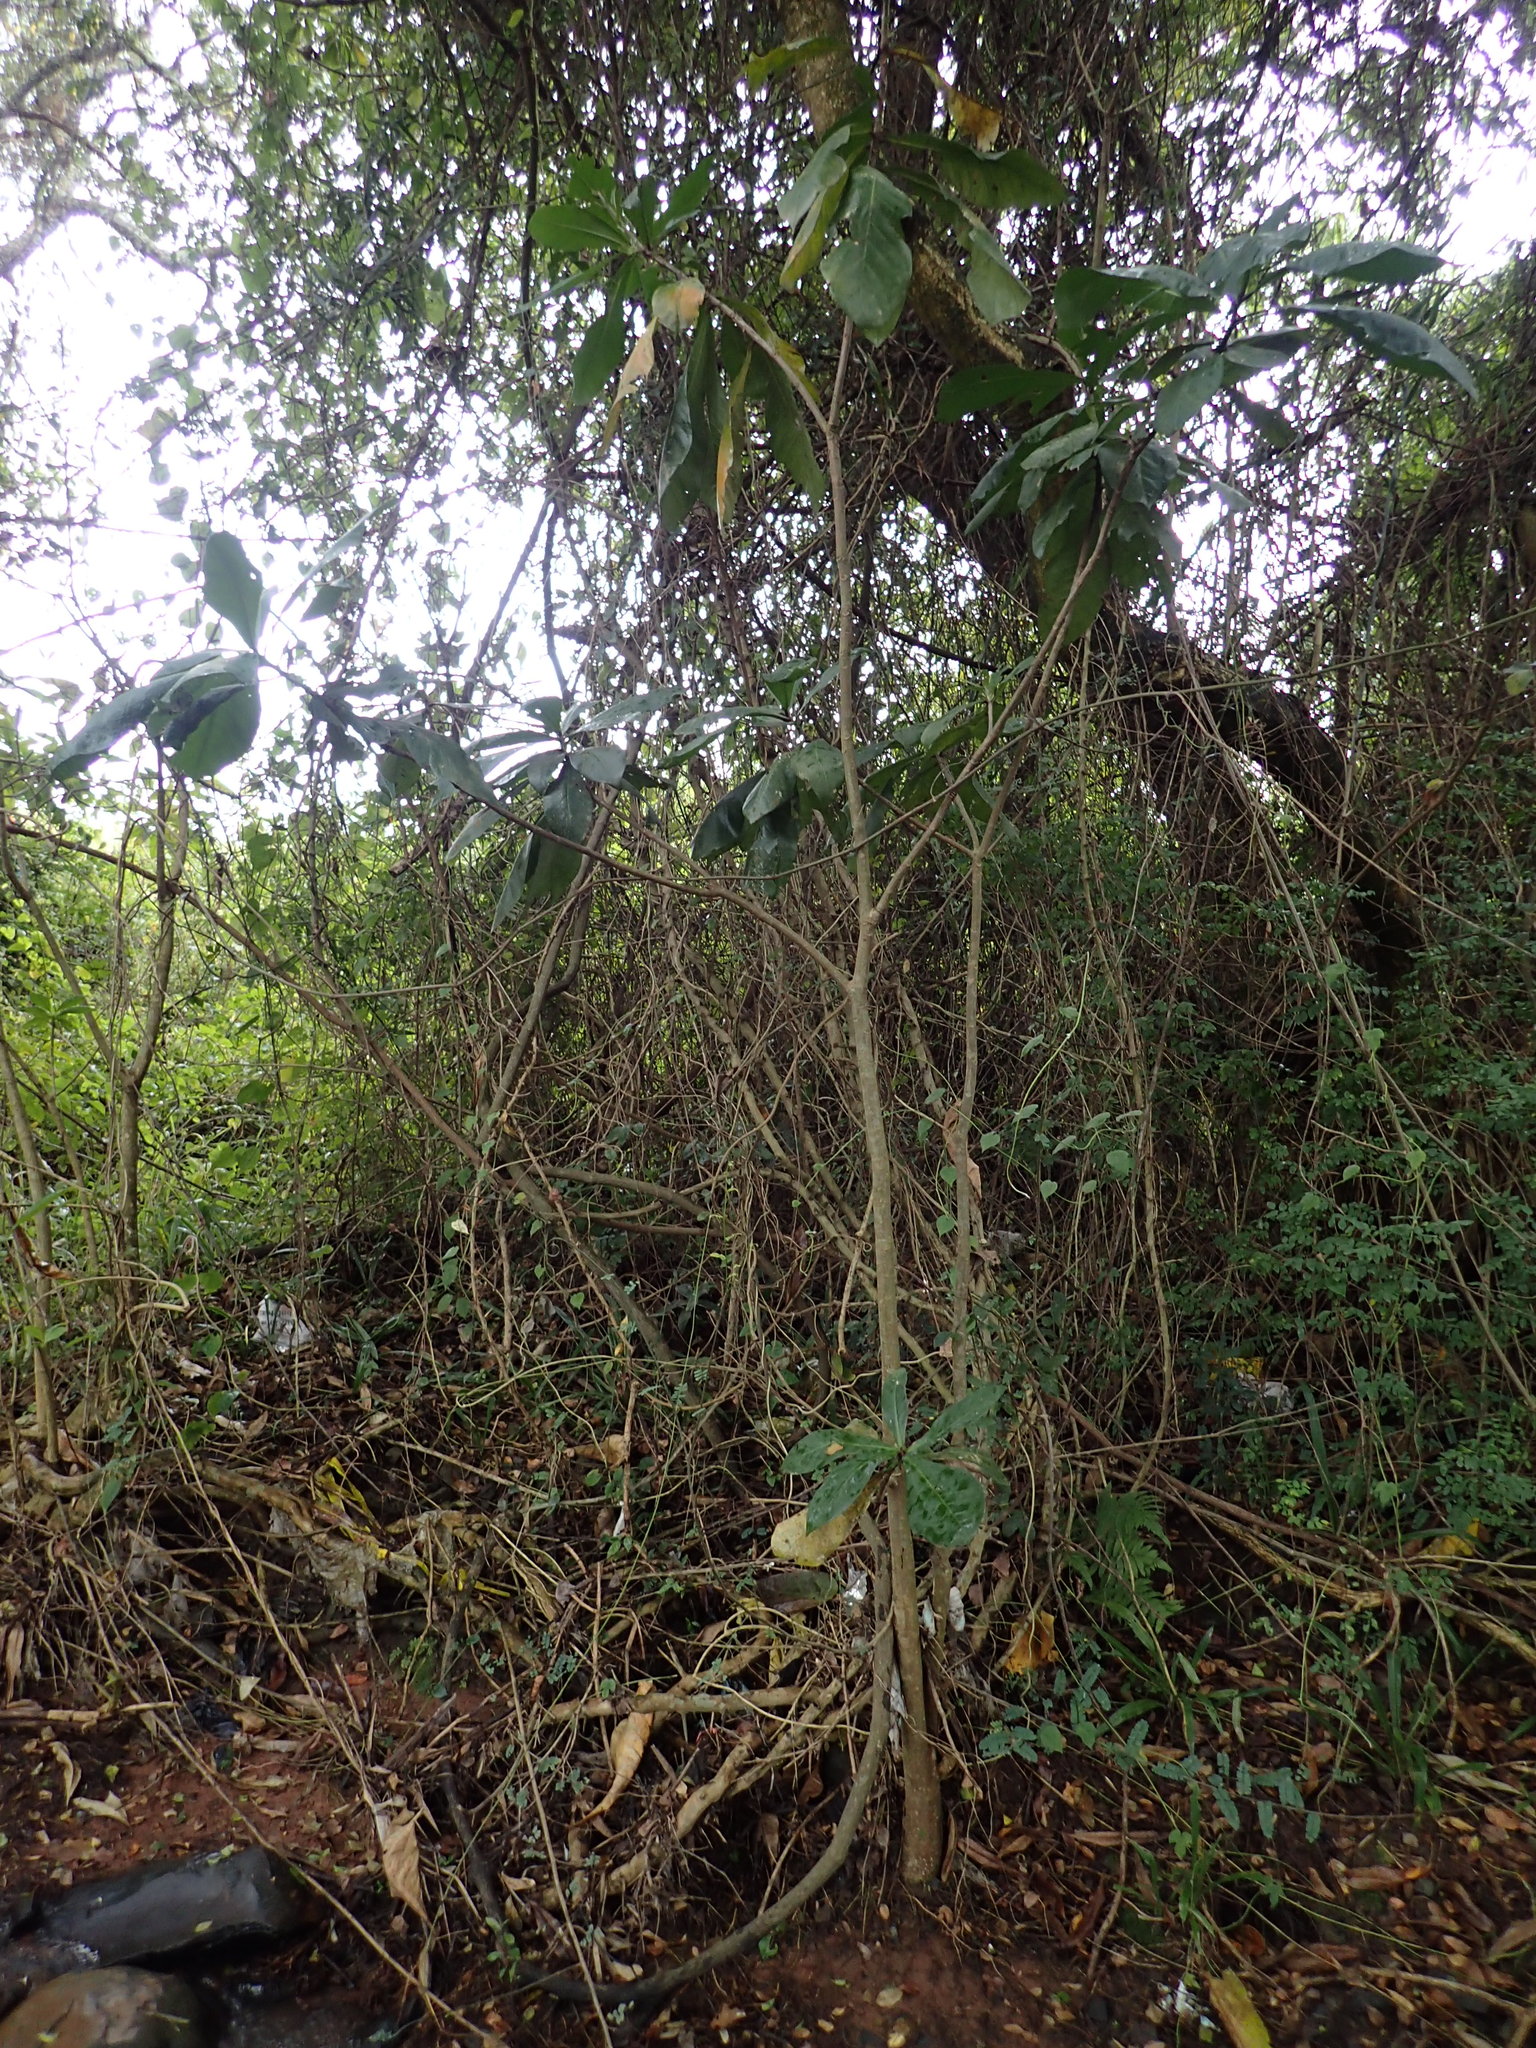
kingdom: Plantae
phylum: Tracheophyta
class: Magnoliopsida
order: Ericales
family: Lecythidaceae
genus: Barringtonia
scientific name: Barringtonia racemosa
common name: Brackwater mangrove
